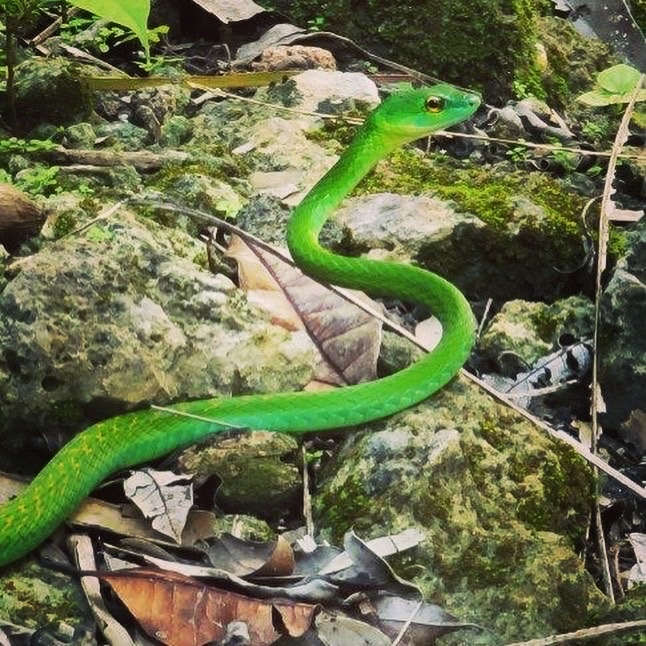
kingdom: Animalia
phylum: Chordata
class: Squamata
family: Colubridae
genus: Leptophis
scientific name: Leptophis ahaetulla
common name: Parrot snake
